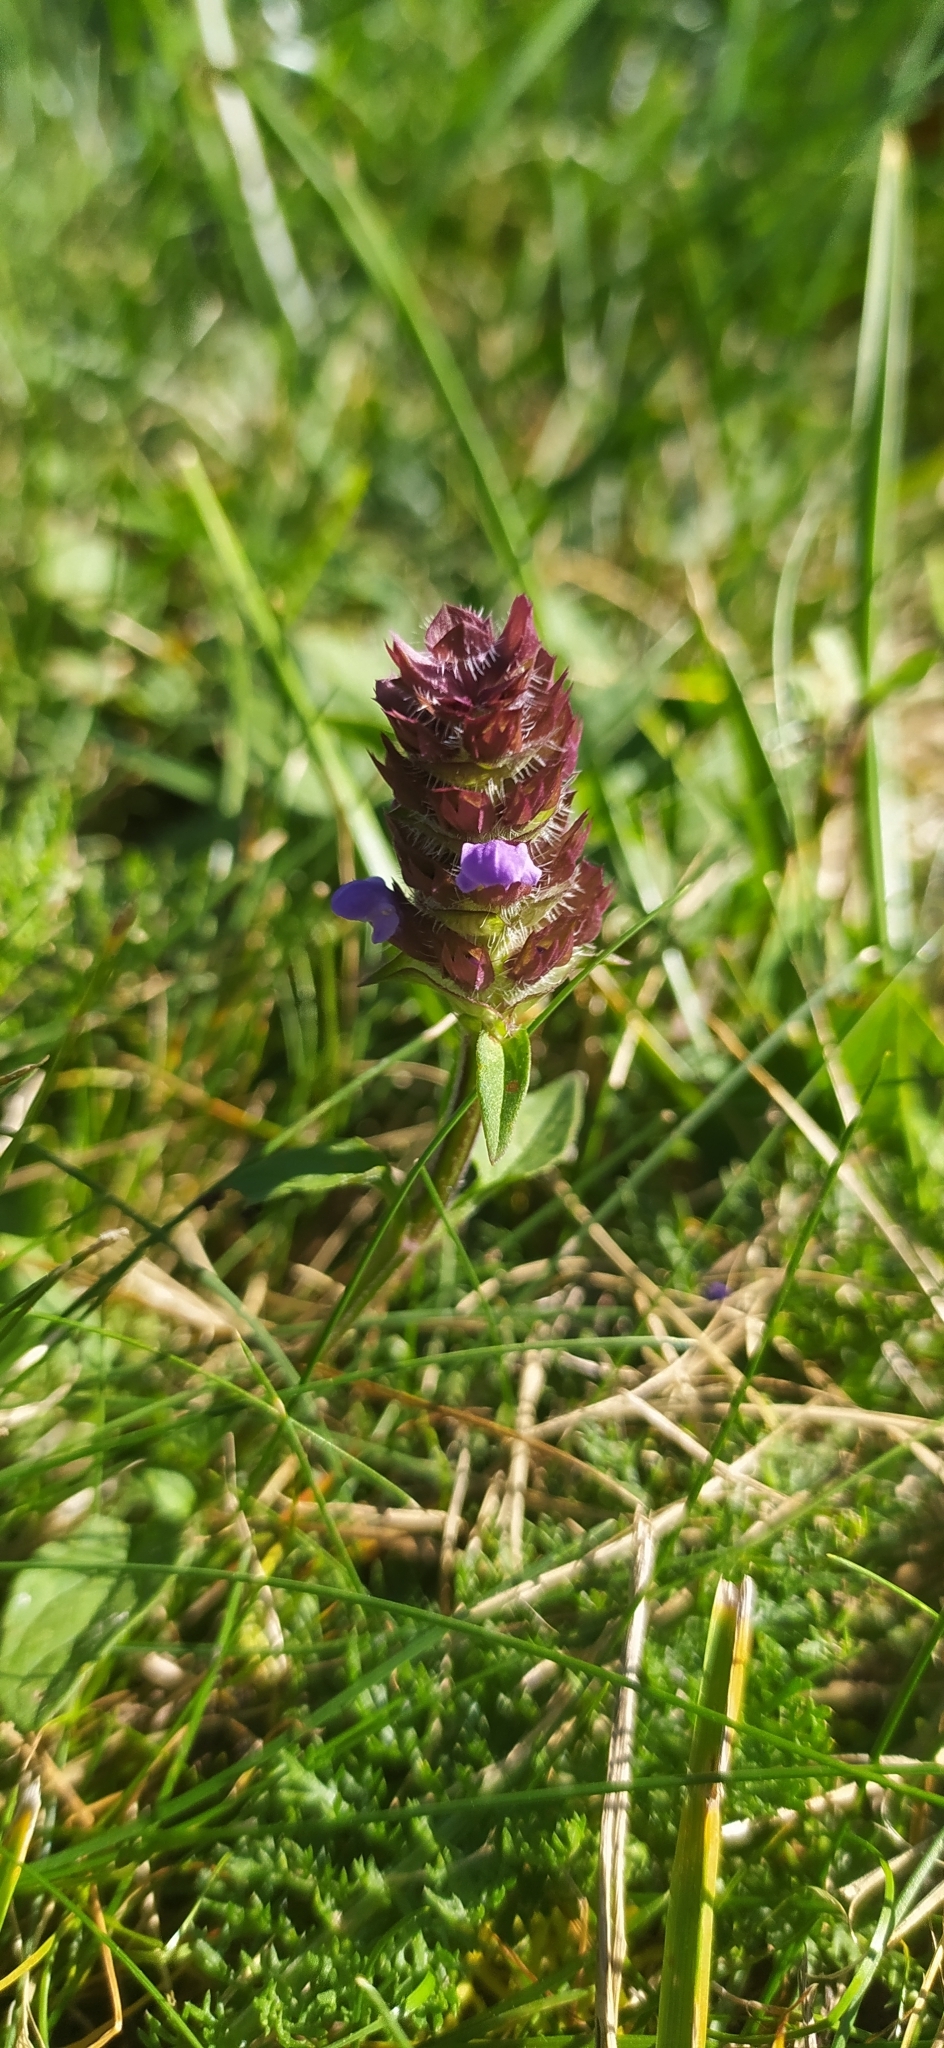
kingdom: Plantae
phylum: Tracheophyta
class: Magnoliopsida
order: Lamiales
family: Lamiaceae
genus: Prunella
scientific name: Prunella vulgaris
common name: Heal-all
